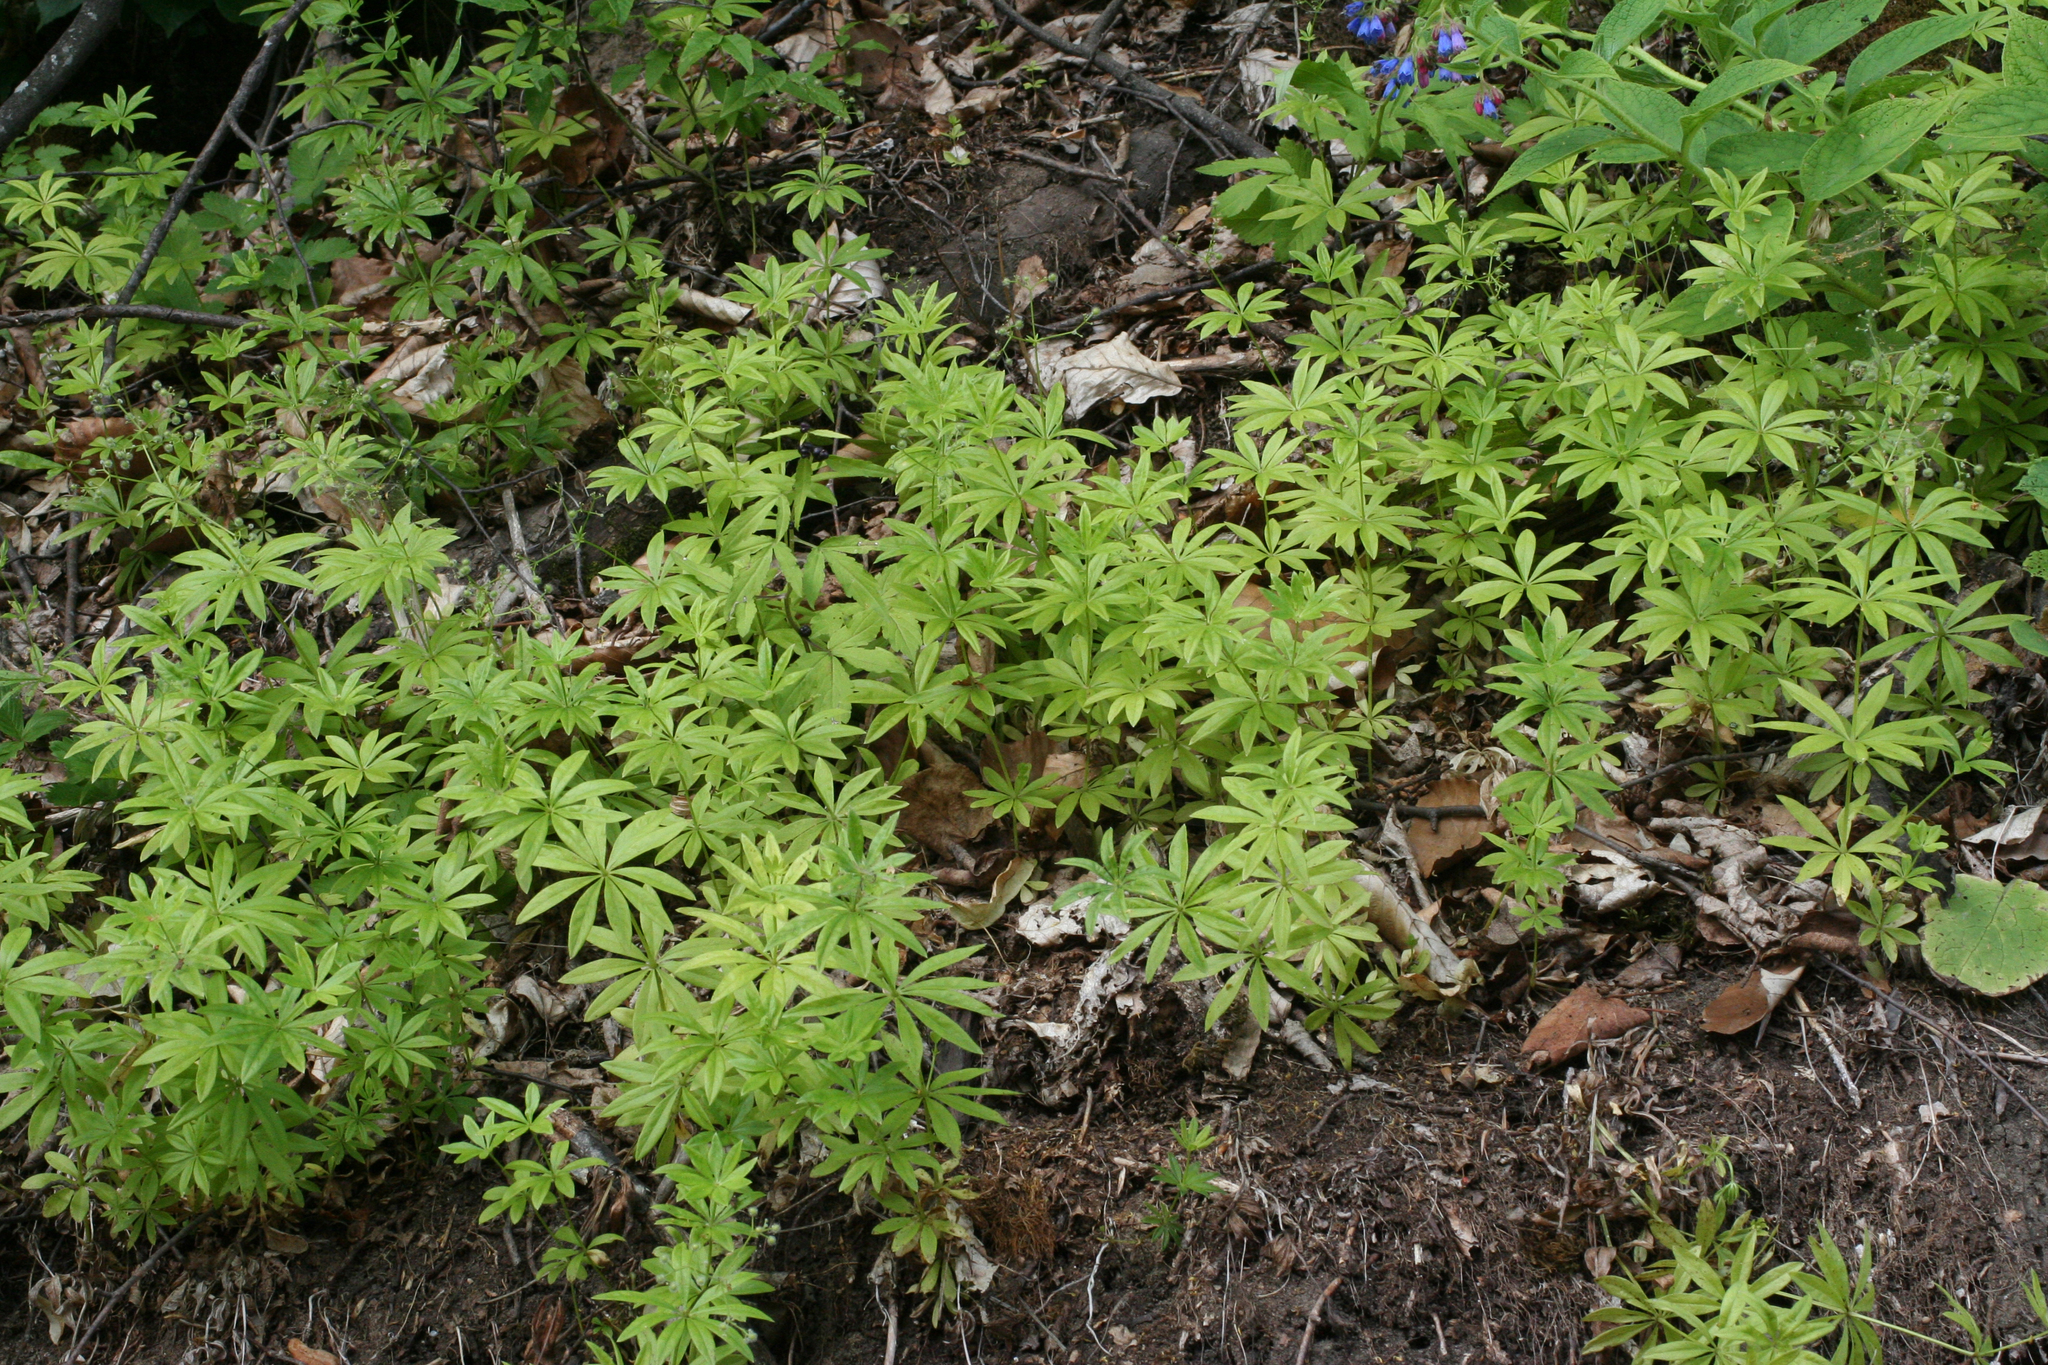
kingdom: Plantae
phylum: Tracheophyta
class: Magnoliopsida
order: Gentianales
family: Rubiaceae
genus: Galium
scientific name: Galium odoratum
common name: Sweet woodruff
